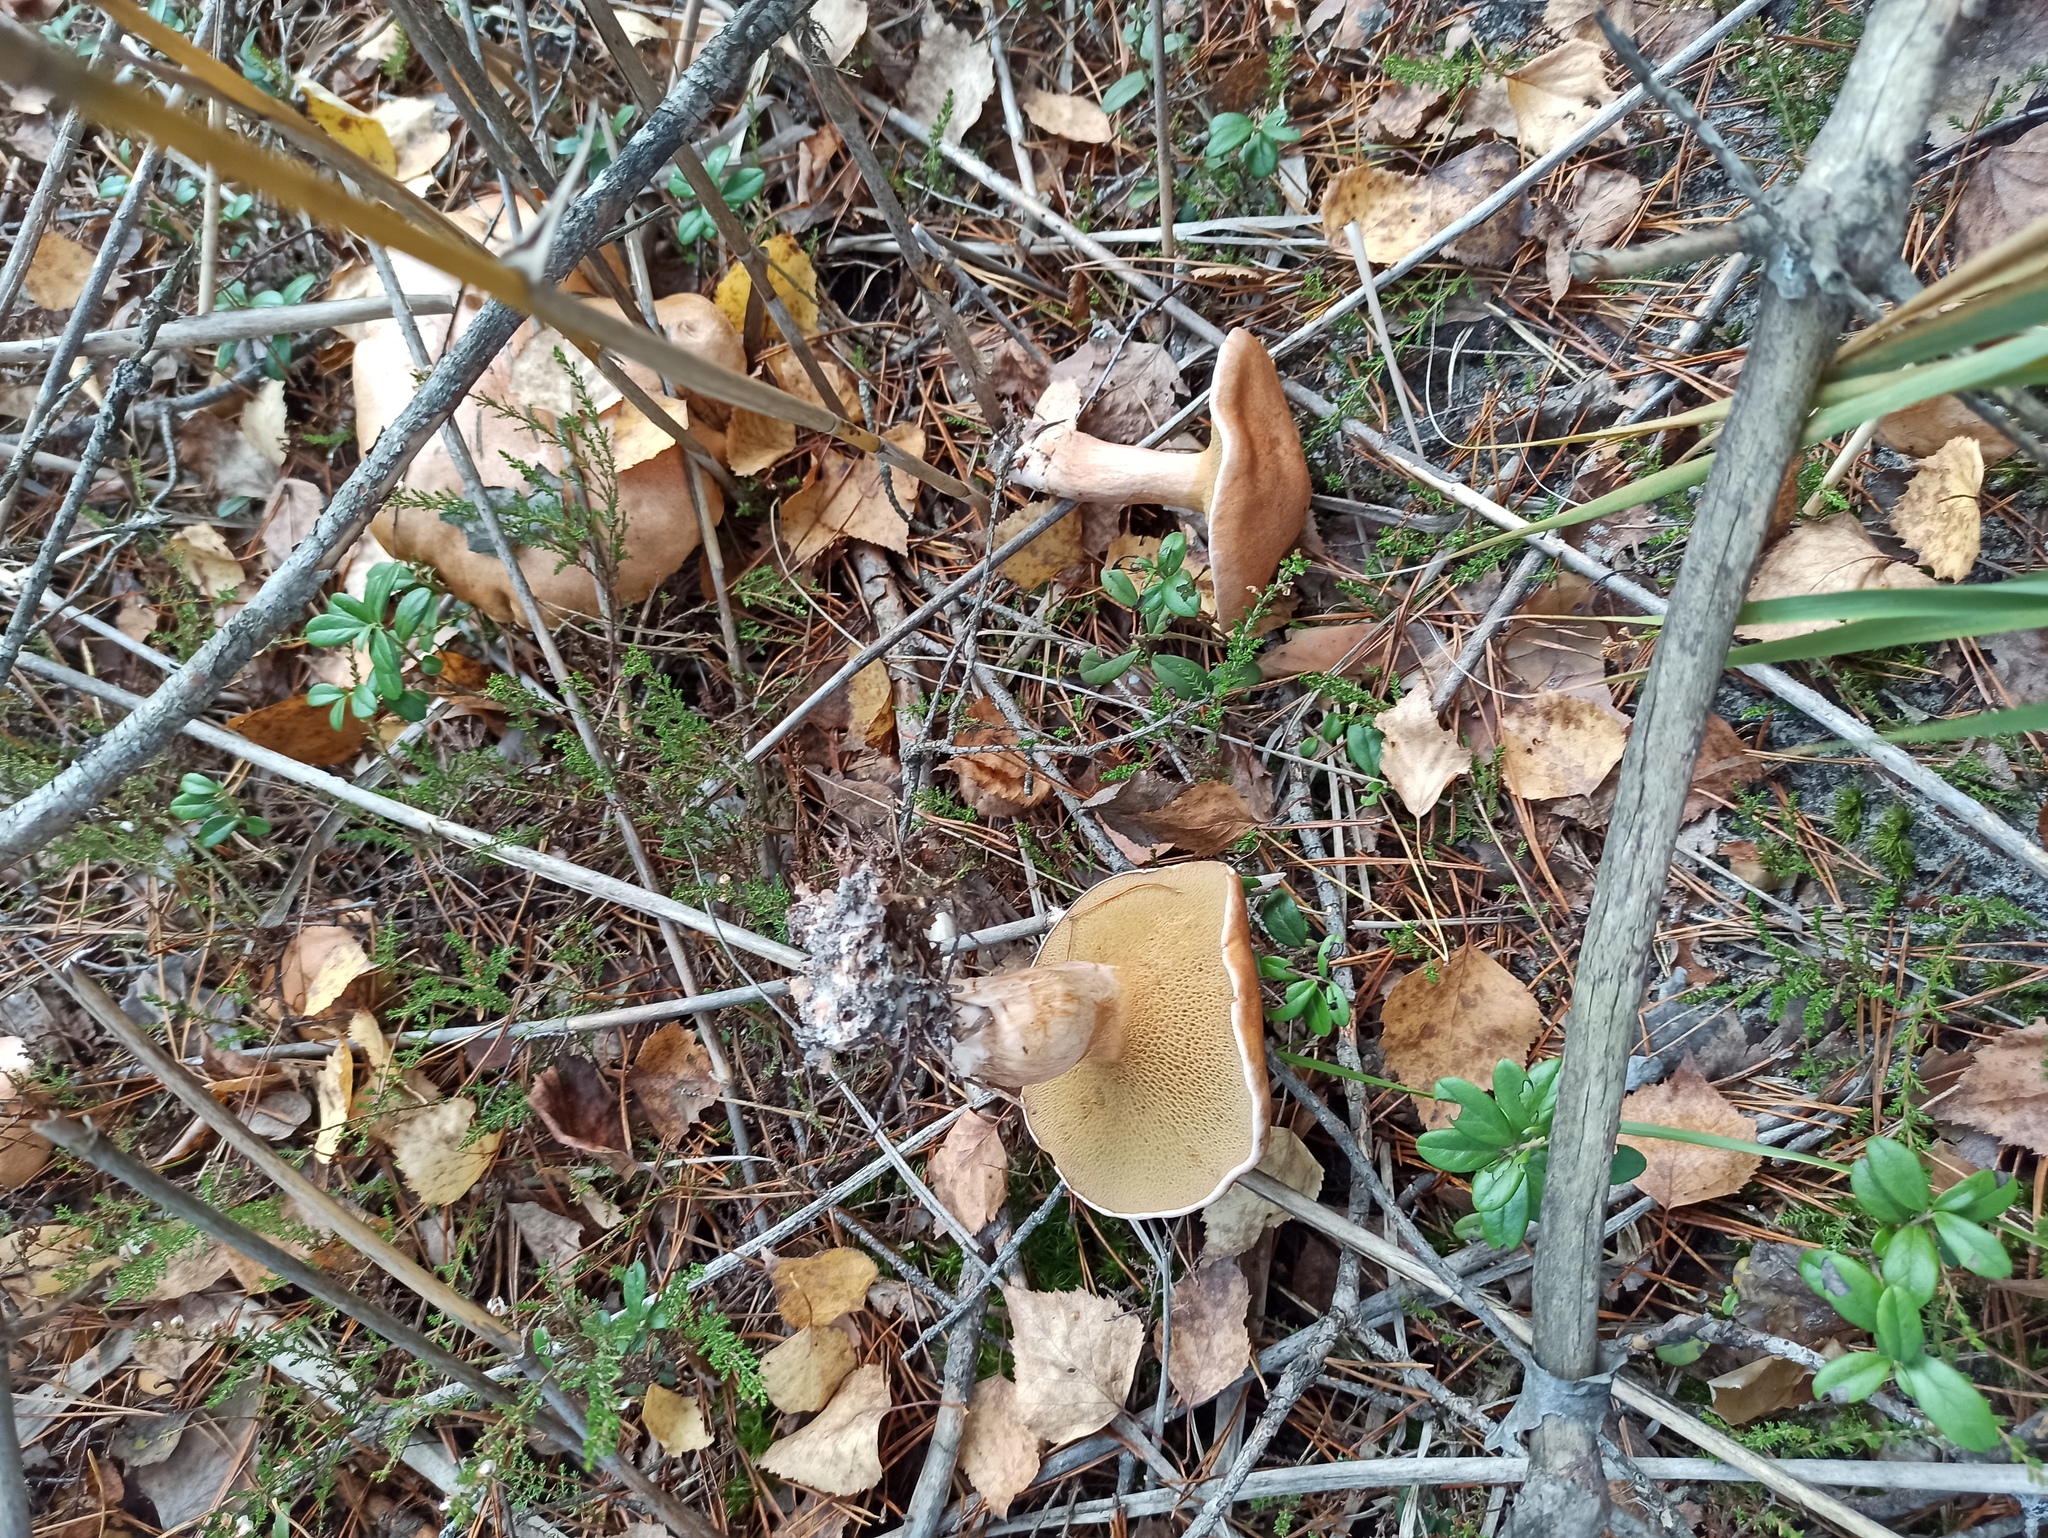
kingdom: Fungi
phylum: Basidiomycota
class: Agaricomycetes
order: Boletales
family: Suillaceae
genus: Suillus
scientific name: Suillus bovinus
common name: Bovine bolete
